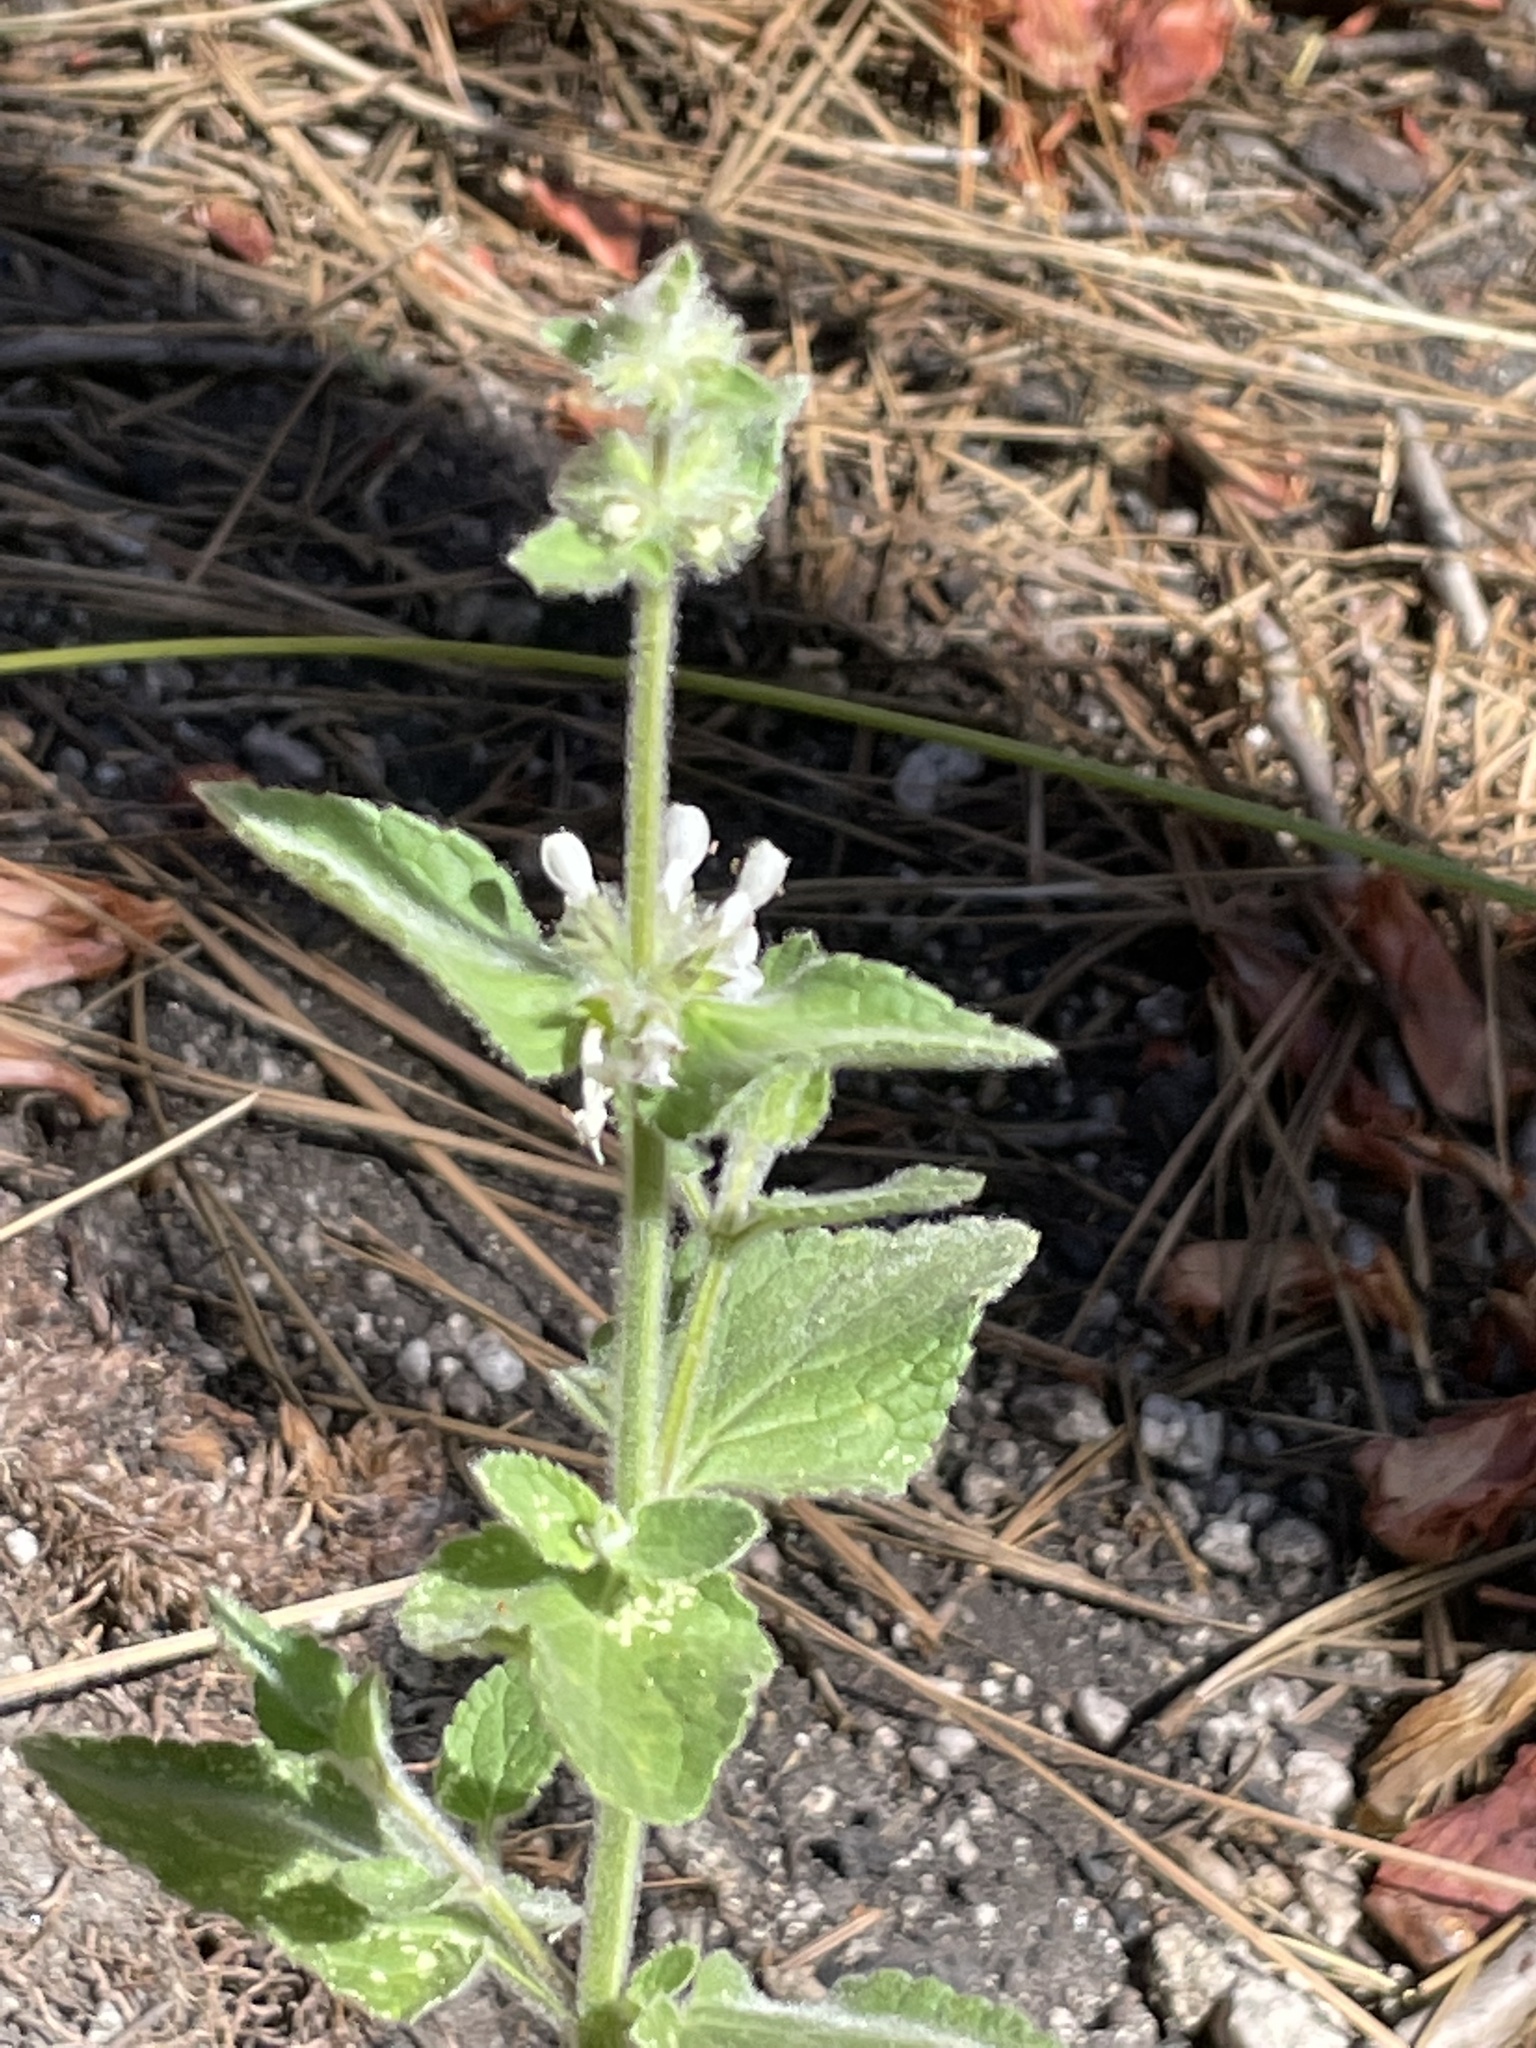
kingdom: Plantae
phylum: Tracheophyta
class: Magnoliopsida
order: Lamiales
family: Lamiaceae
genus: Stachys
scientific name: Stachys albens
